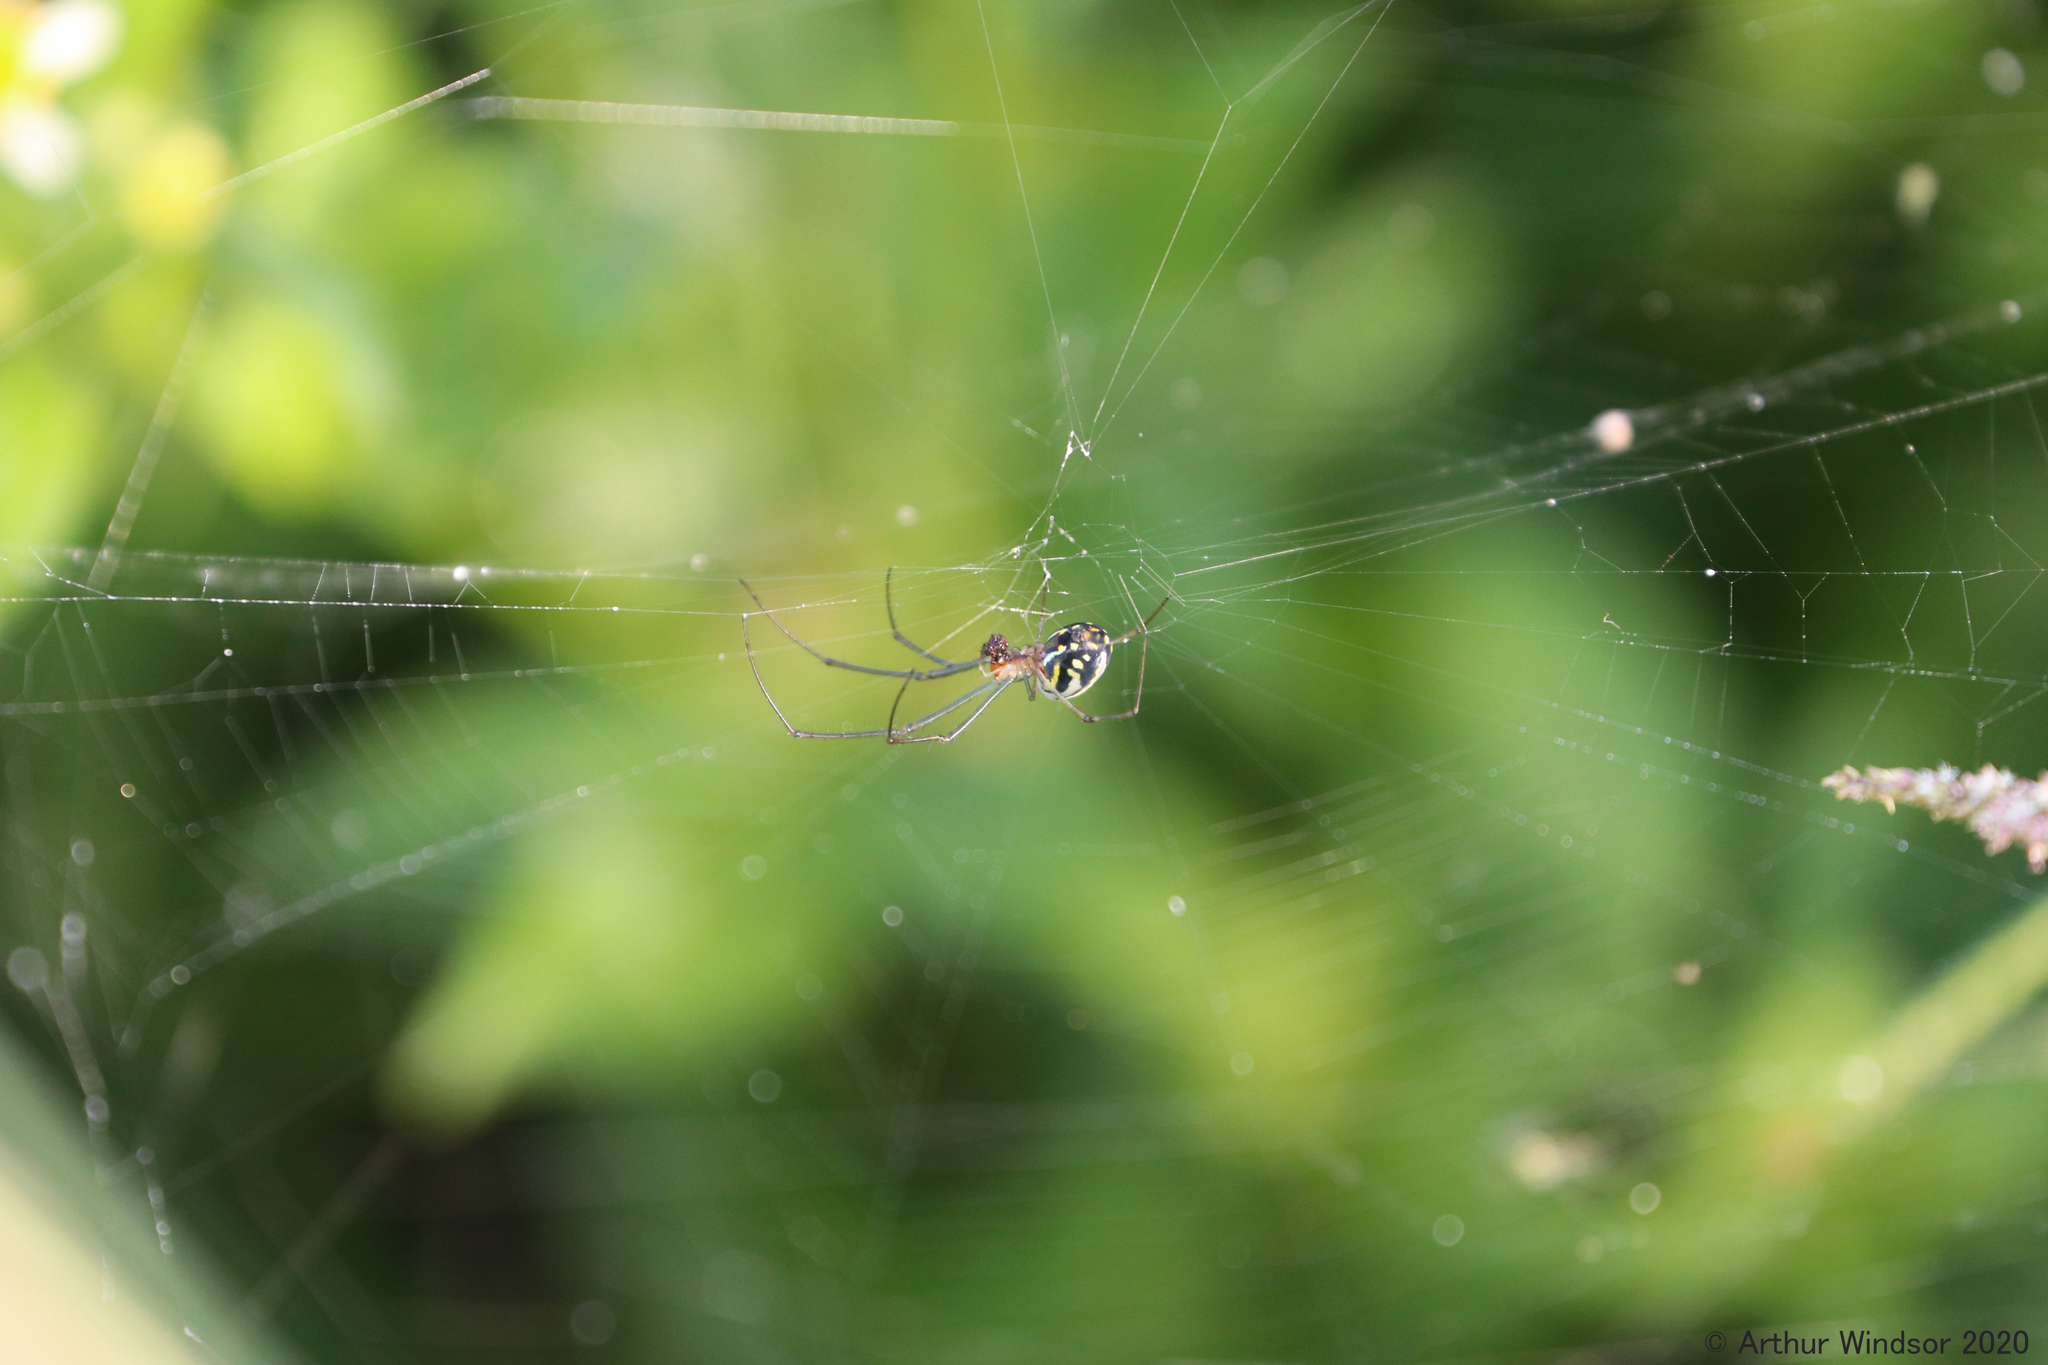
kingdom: Animalia
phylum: Arthropoda
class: Arachnida
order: Araneae
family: Tetragnathidae
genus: Leucauge
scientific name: Leucauge argyra
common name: Longjawed orb weavers
